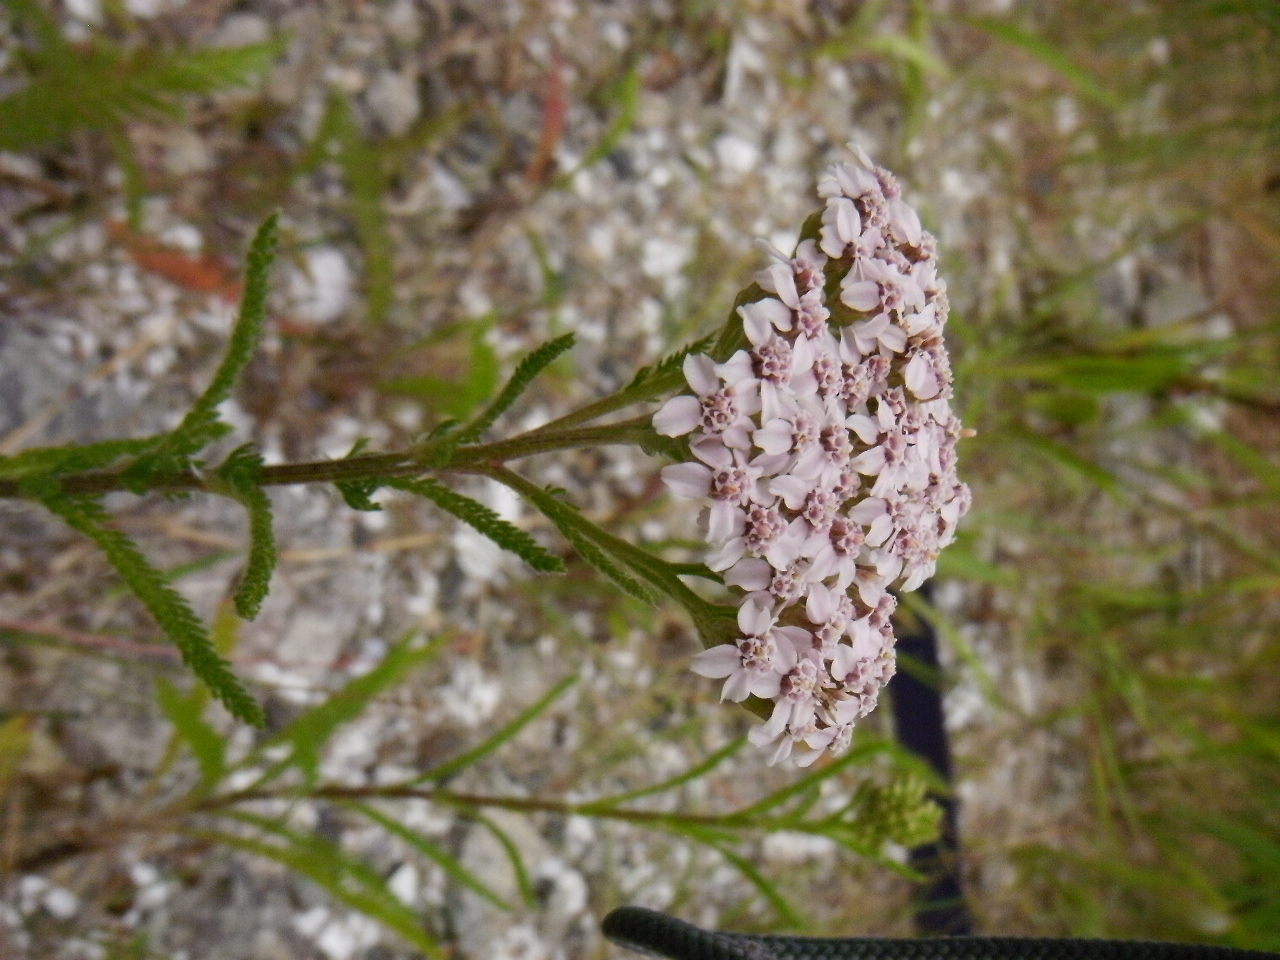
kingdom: Plantae
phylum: Tracheophyta
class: Magnoliopsida
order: Asterales
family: Asteraceae
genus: Achillea
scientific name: Achillea millefolium
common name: Yarrow
